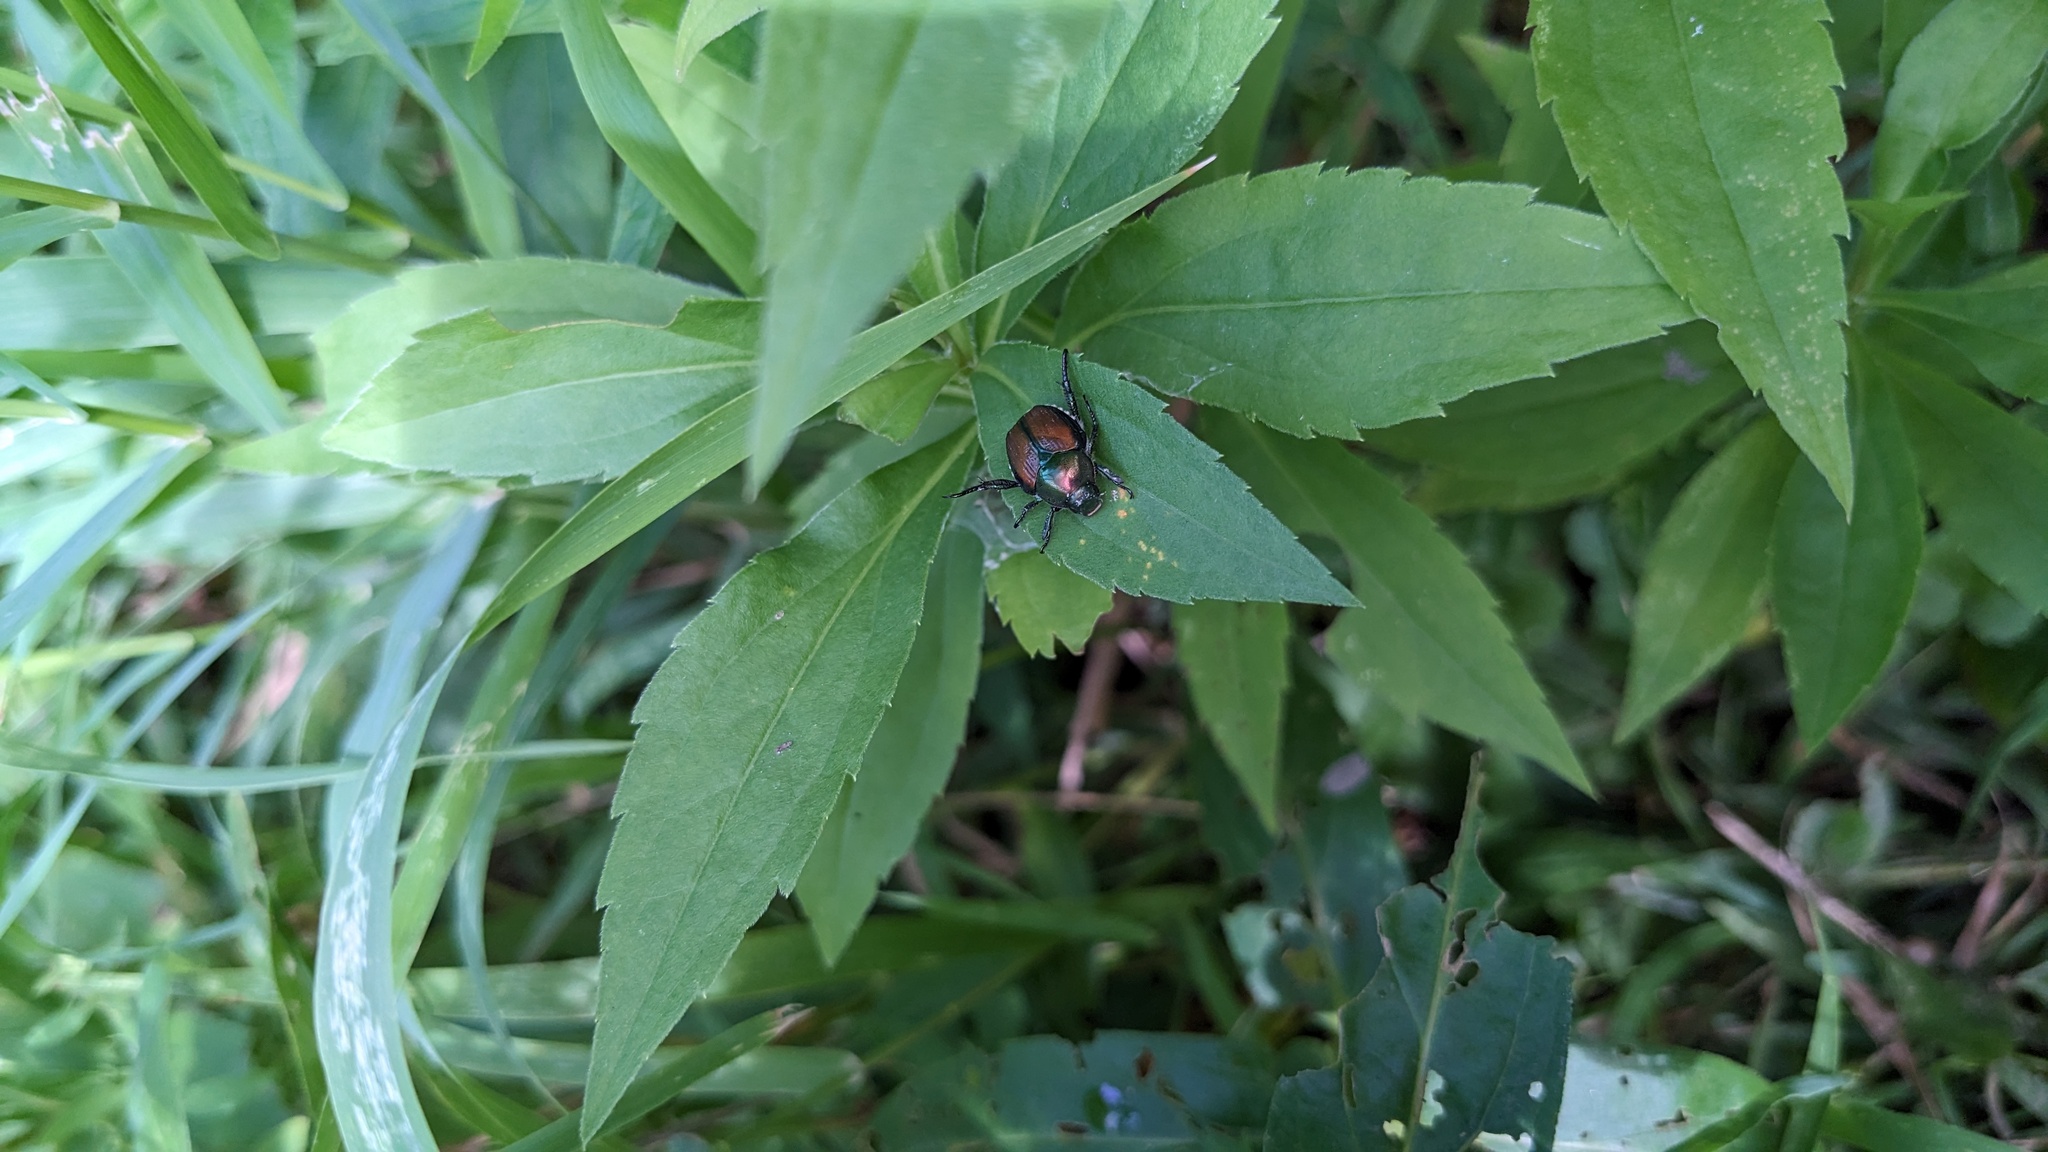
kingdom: Animalia
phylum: Arthropoda
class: Insecta
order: Coleoptera
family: Scarabaeidae
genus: Popillia
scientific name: Popillia japonica
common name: Japanese beetle
